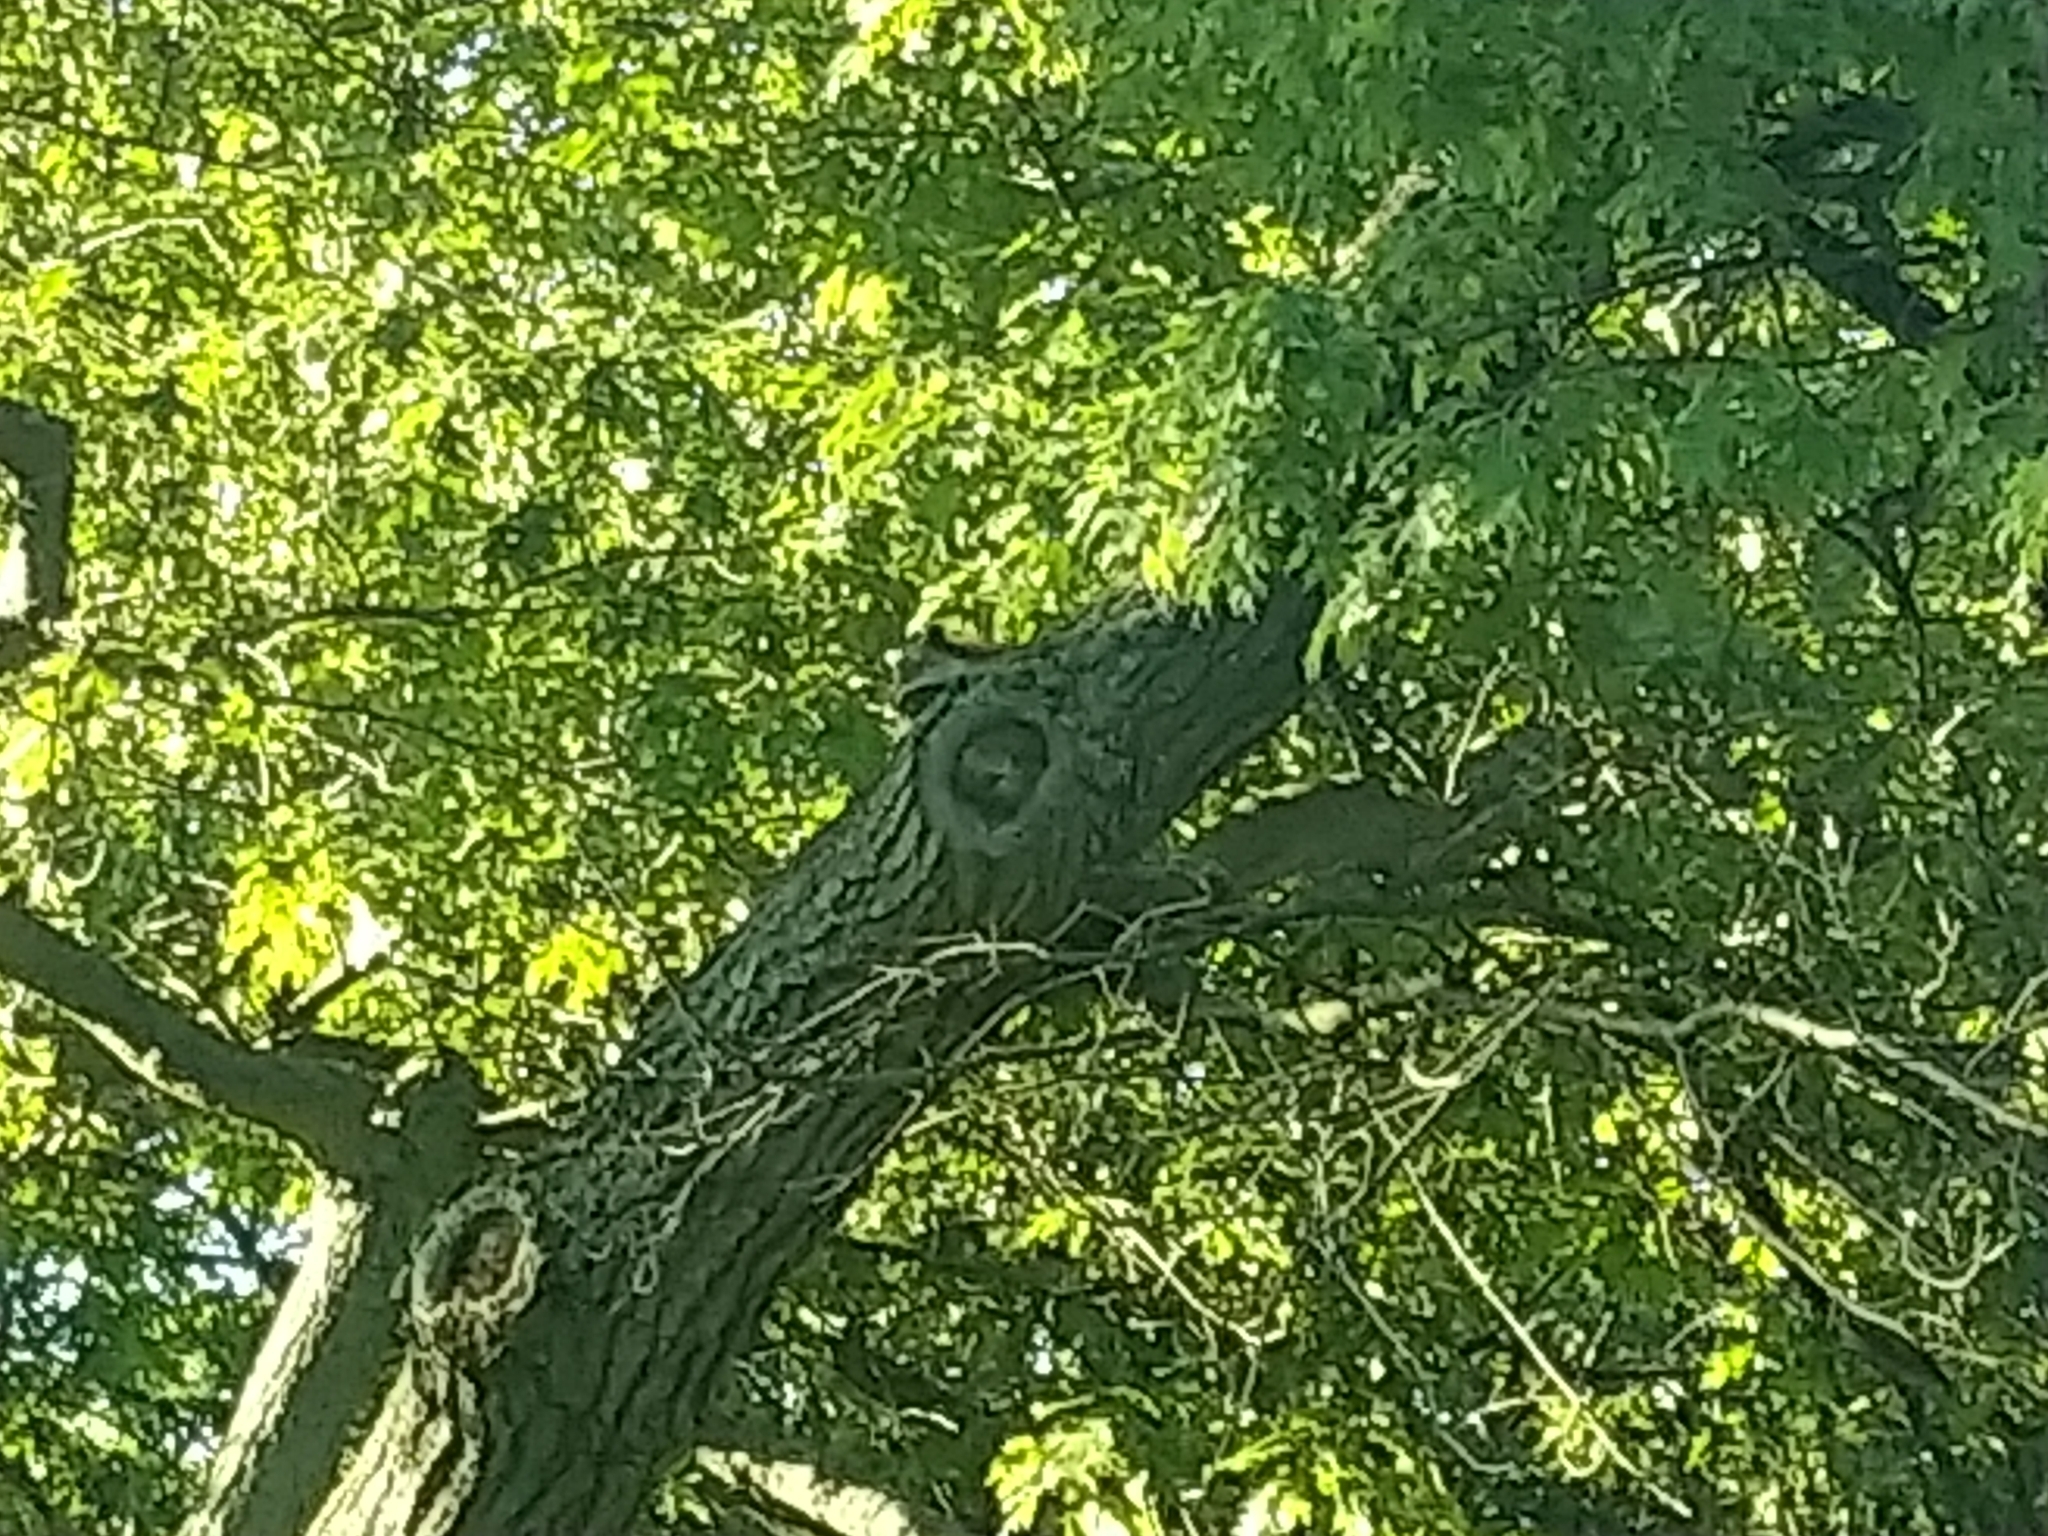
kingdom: Animalia
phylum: Chordata
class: Mammalia
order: Carnivora
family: Procyonidae
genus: Procyon
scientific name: Procyon lotor
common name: Raccoon
